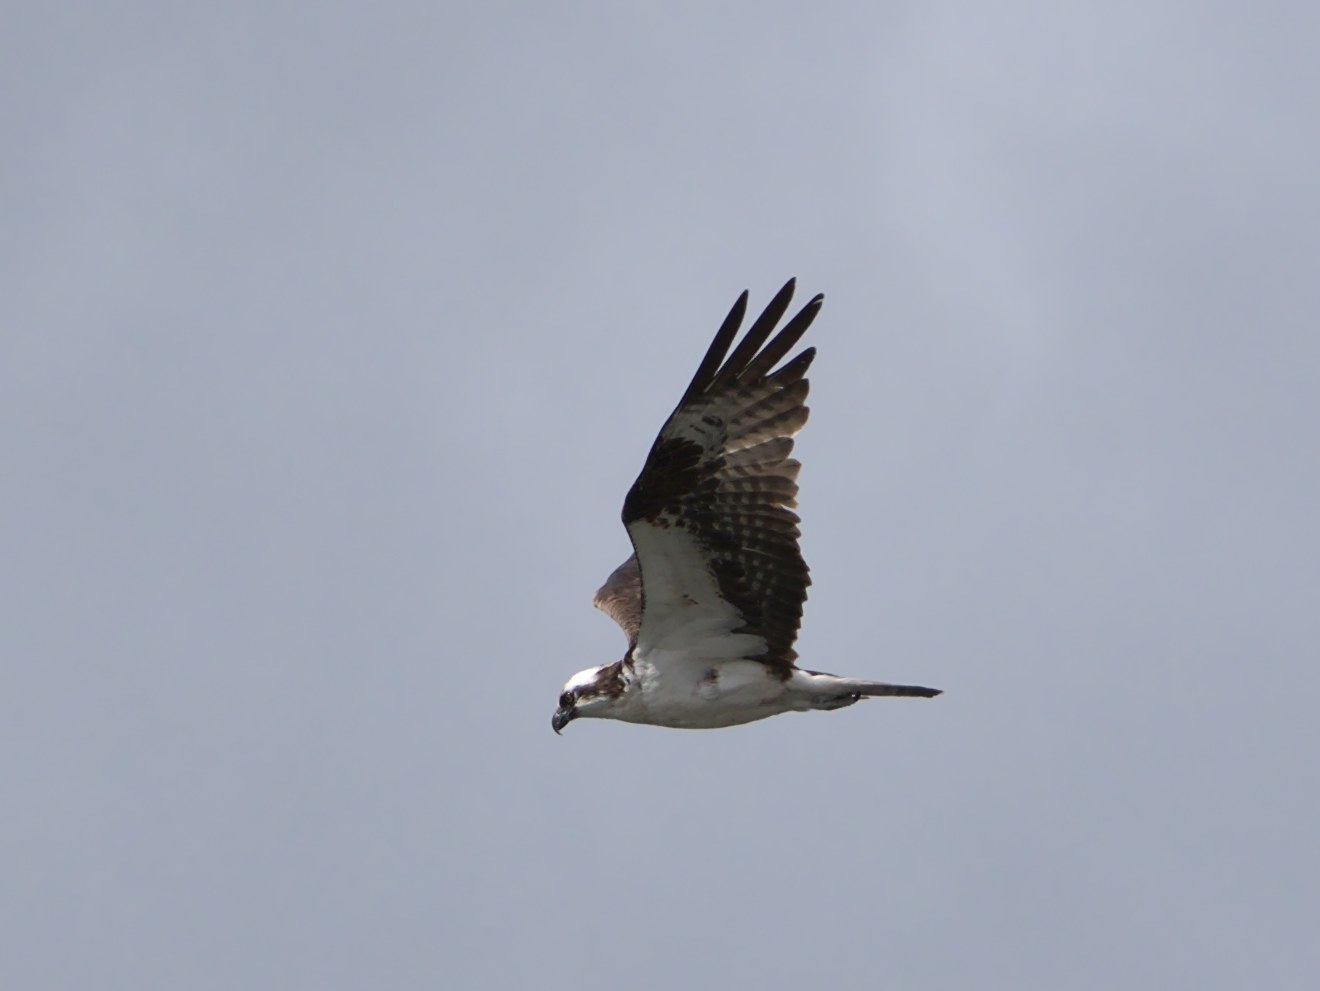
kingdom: Animalia
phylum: Chordata
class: Aves
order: Accipitriformes
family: Pandionidae
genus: Pandion
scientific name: Pandion haliaetus
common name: Osprey
